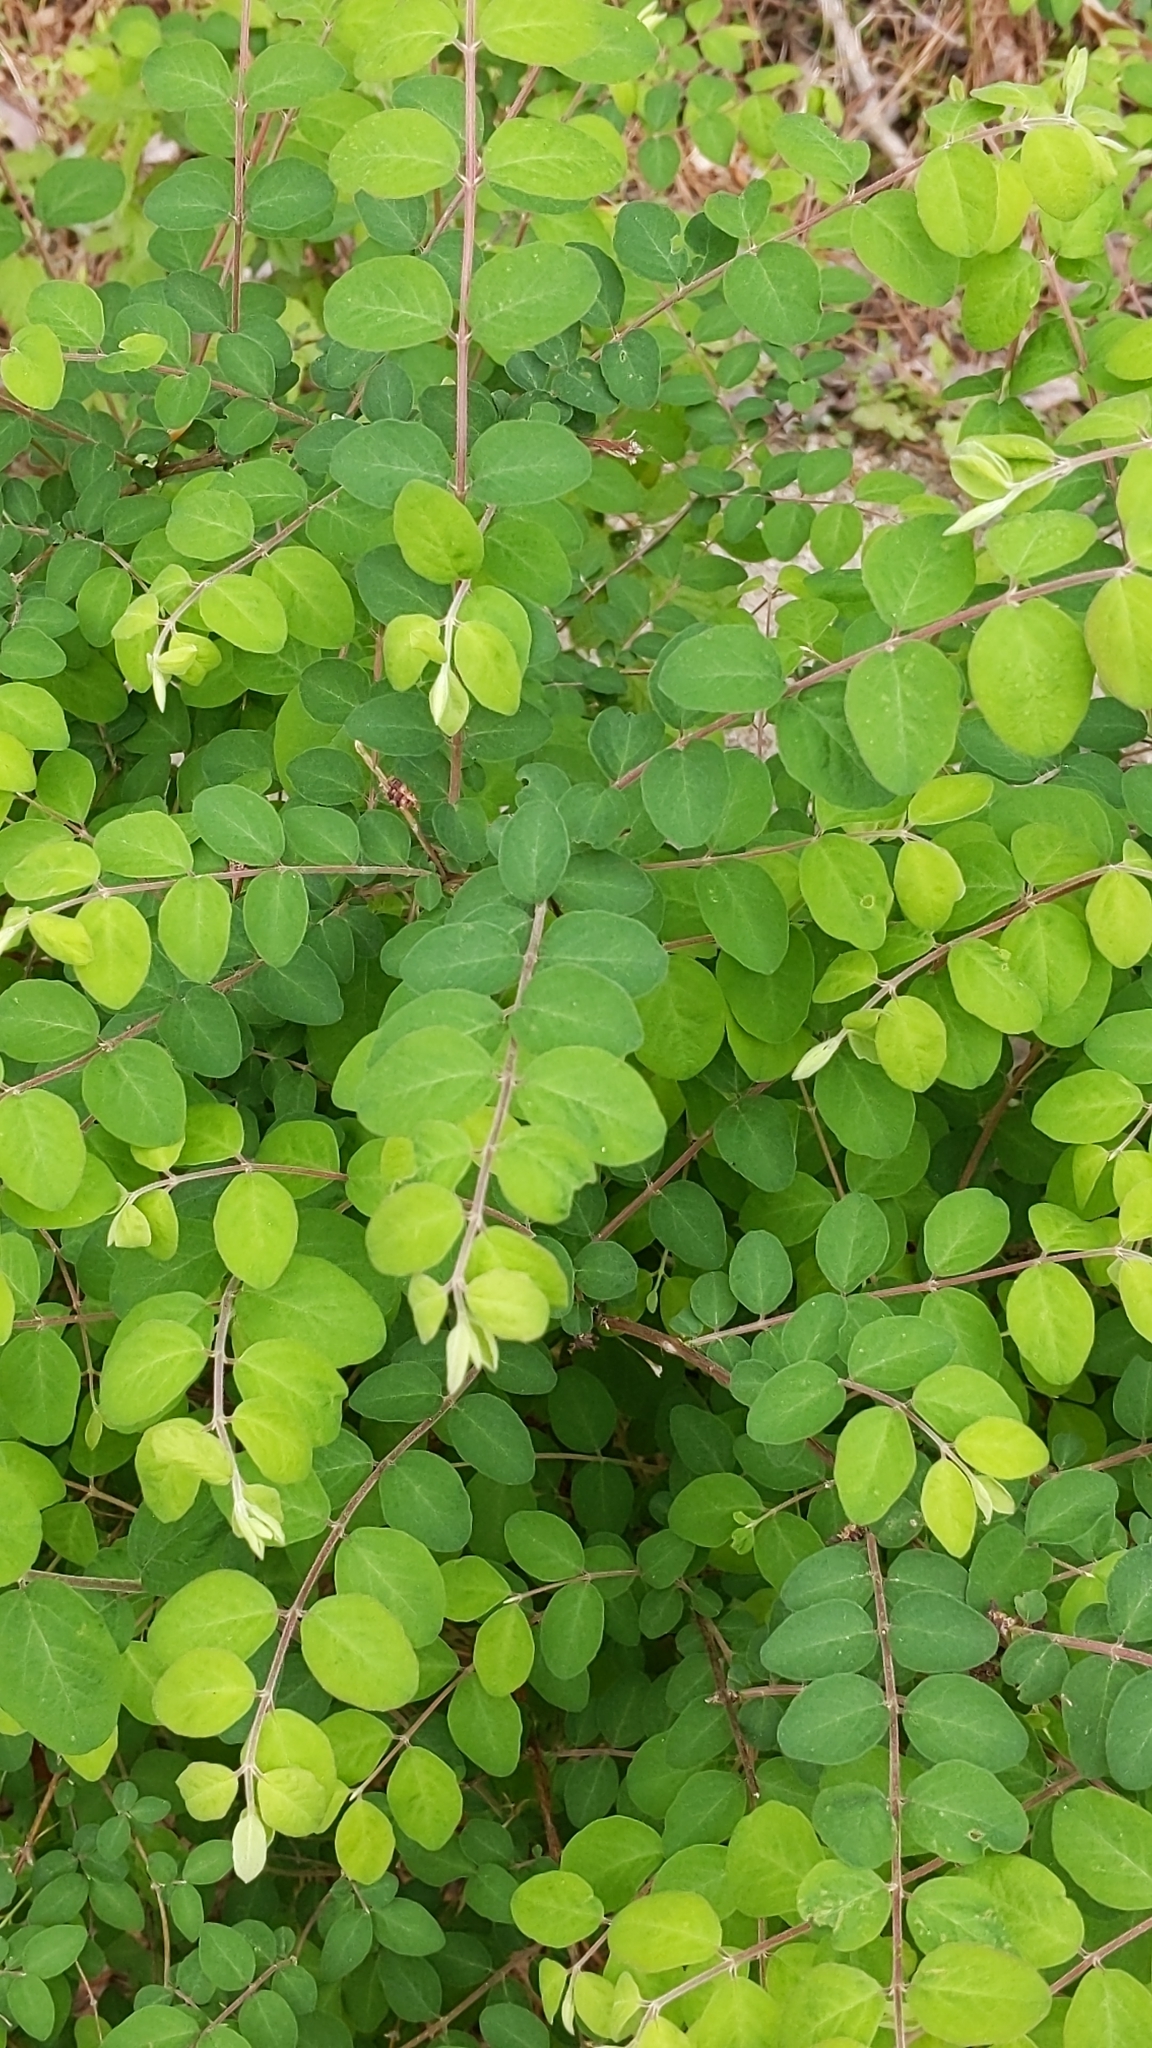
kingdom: Plantae
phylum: Tracheophyta
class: Magnoliopsida
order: Dipsacales
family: Caprifoliaceae
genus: Symphoricarpos
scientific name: Symphoricarpos orbiculatus
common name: Coralberry
